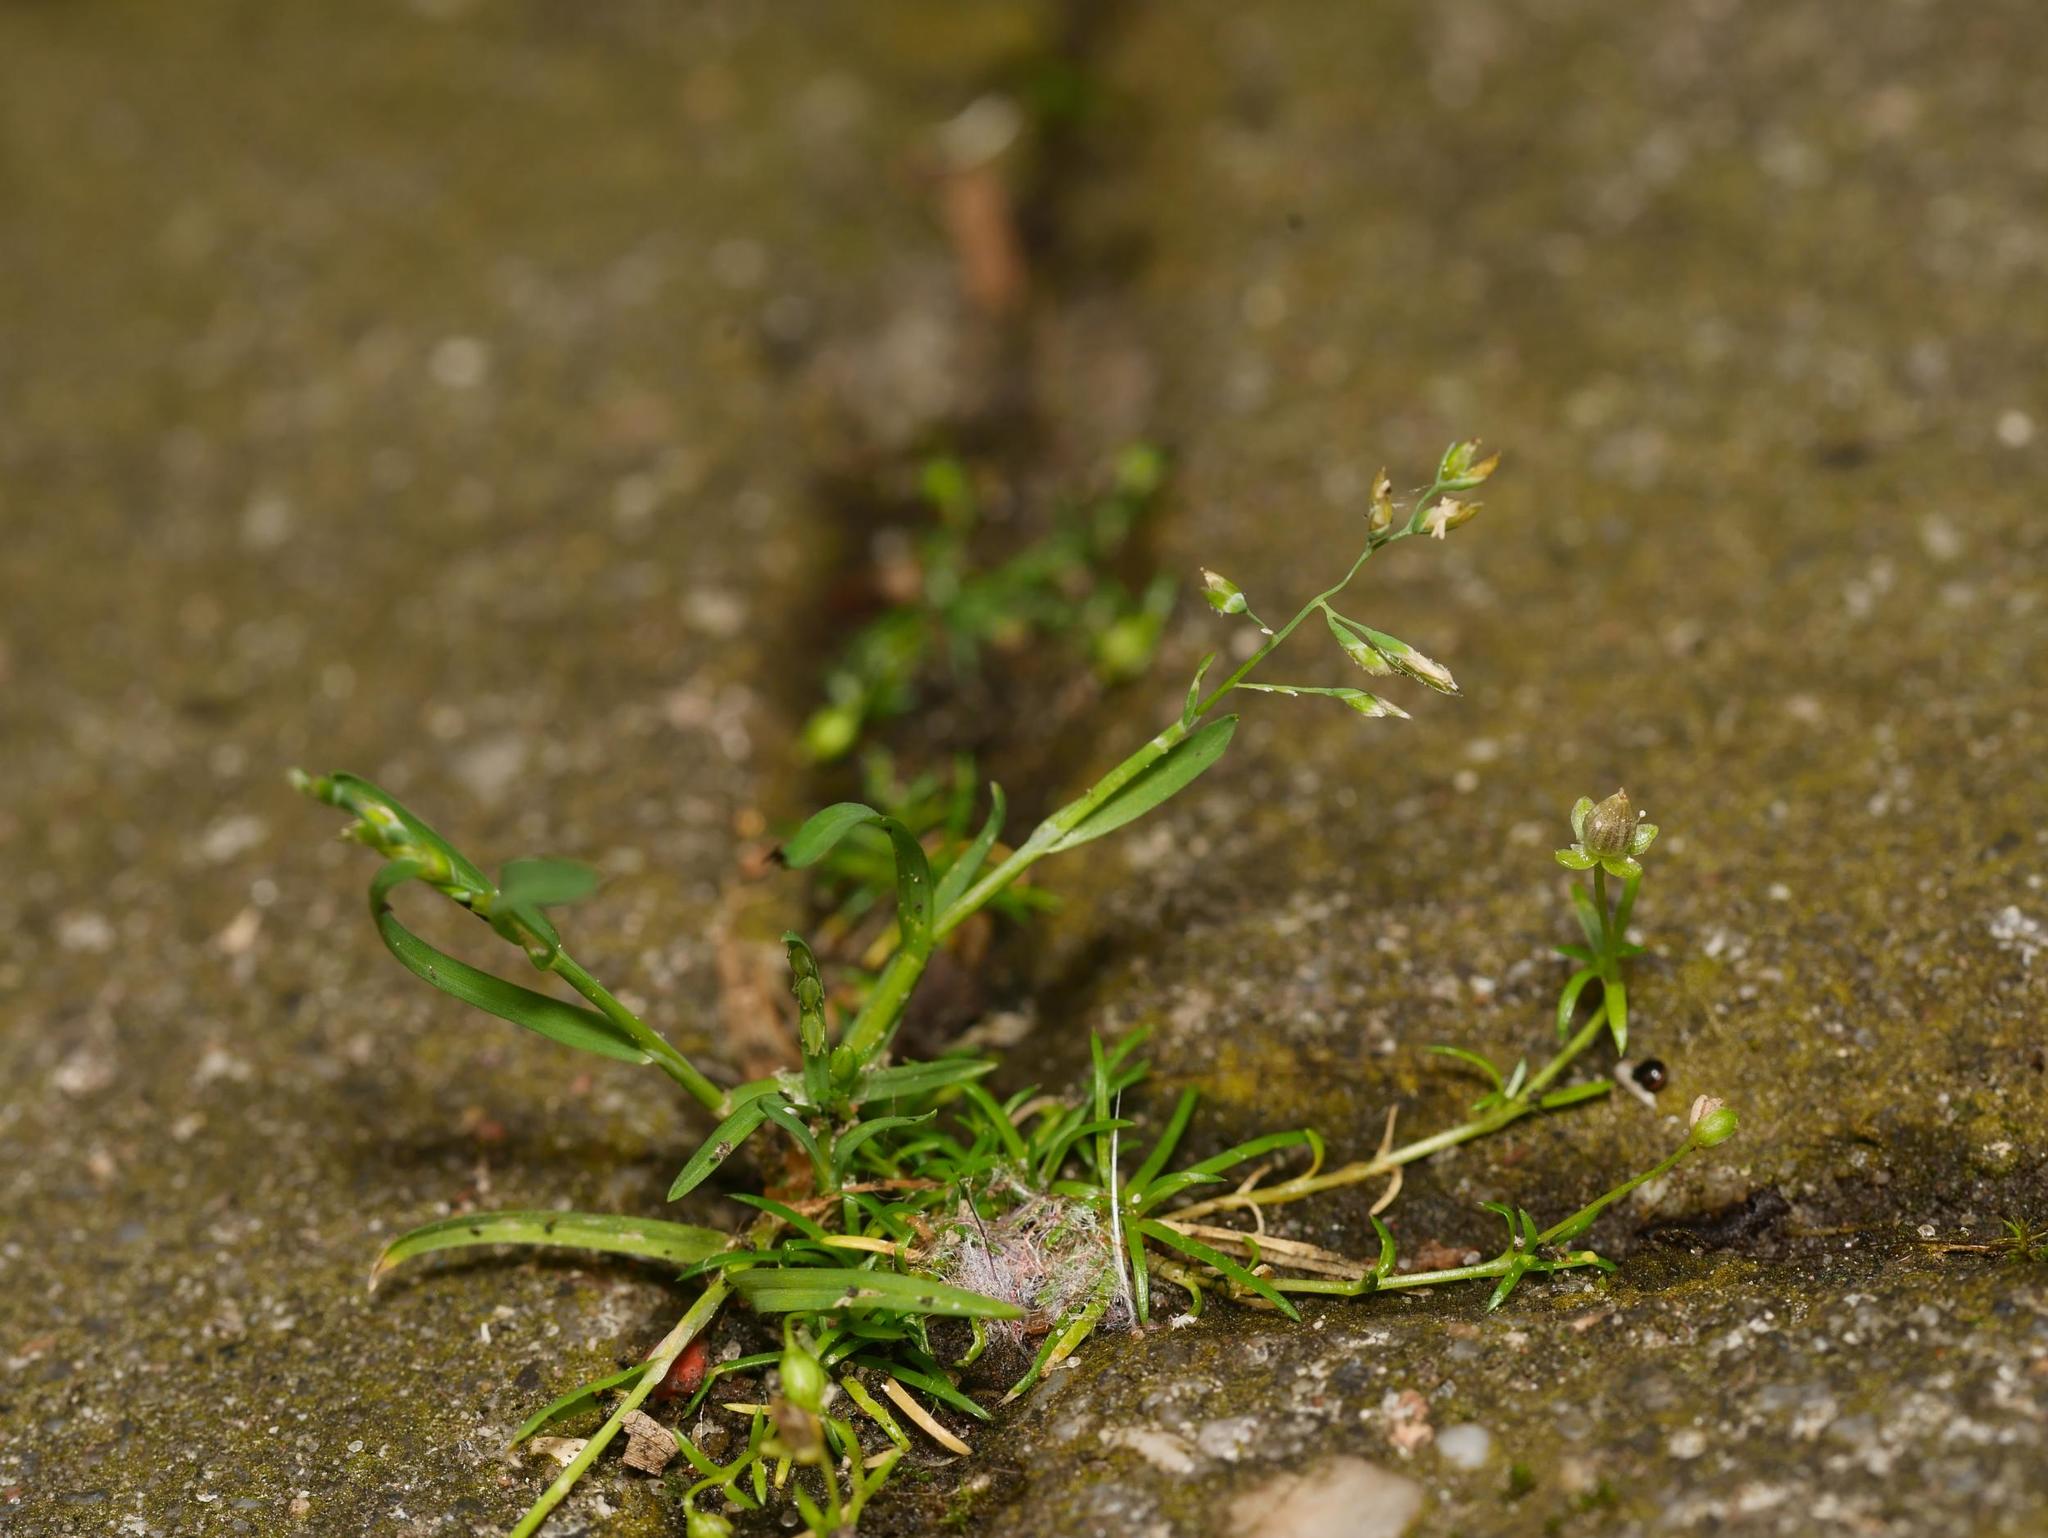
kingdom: Plantae
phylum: Tracheophyta
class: Liliopsida
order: Poales
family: Poaceae
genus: Poa
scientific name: Poa annua
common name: Annual bluegrass
